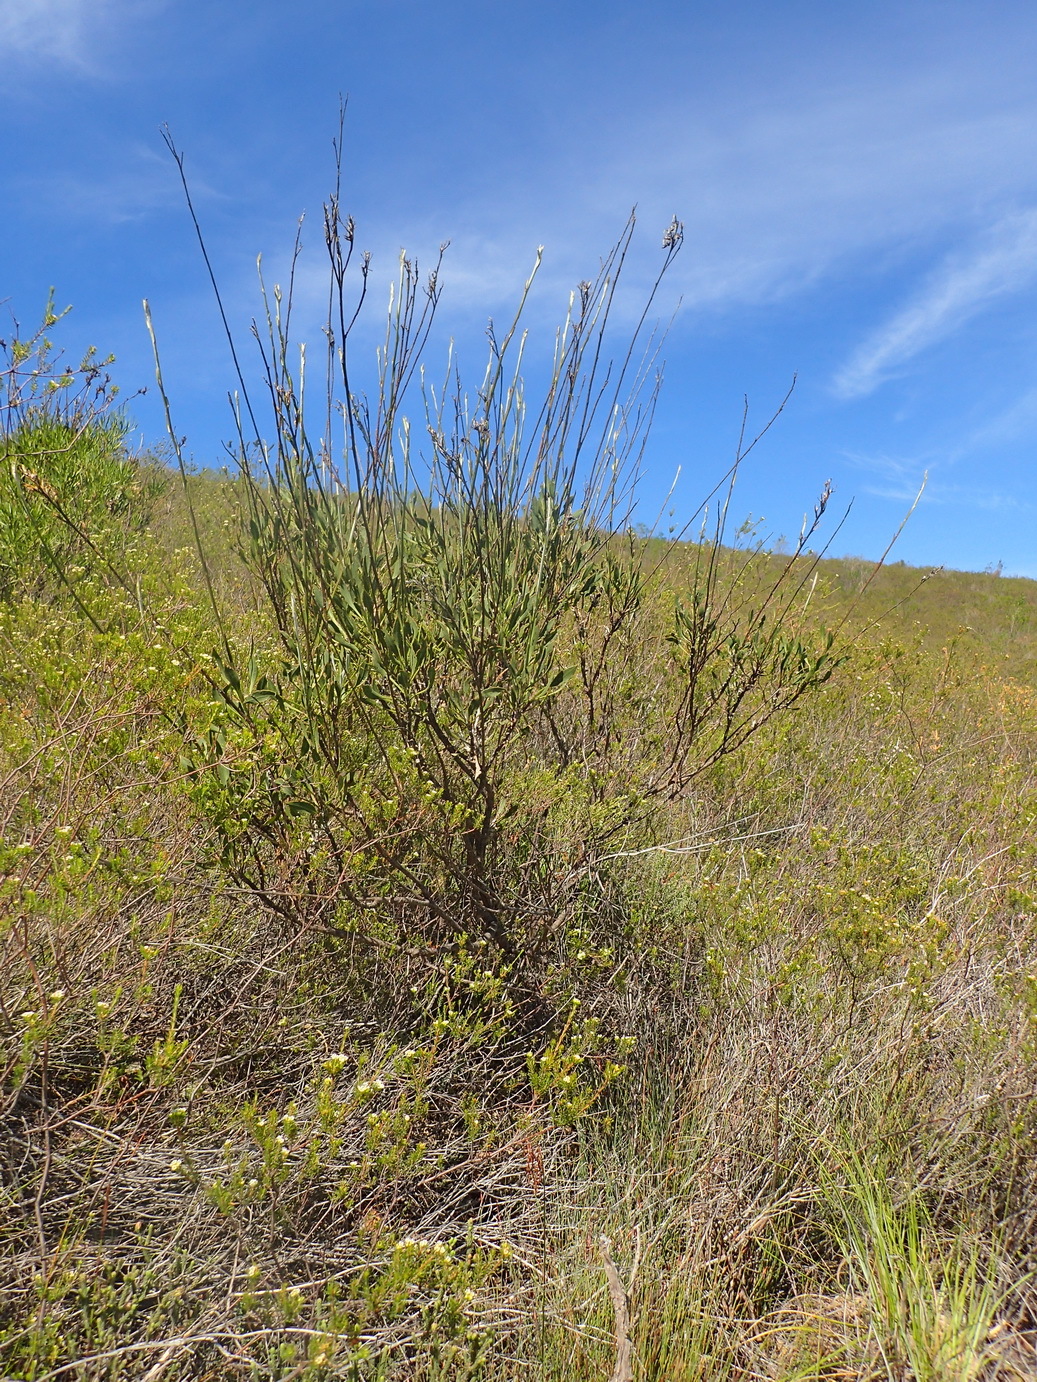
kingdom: Plantae
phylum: Tracheophyta
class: Magnoliopsida
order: Asterales
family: Asteraceae
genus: Osteospermum
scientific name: Osteospermum junceum
